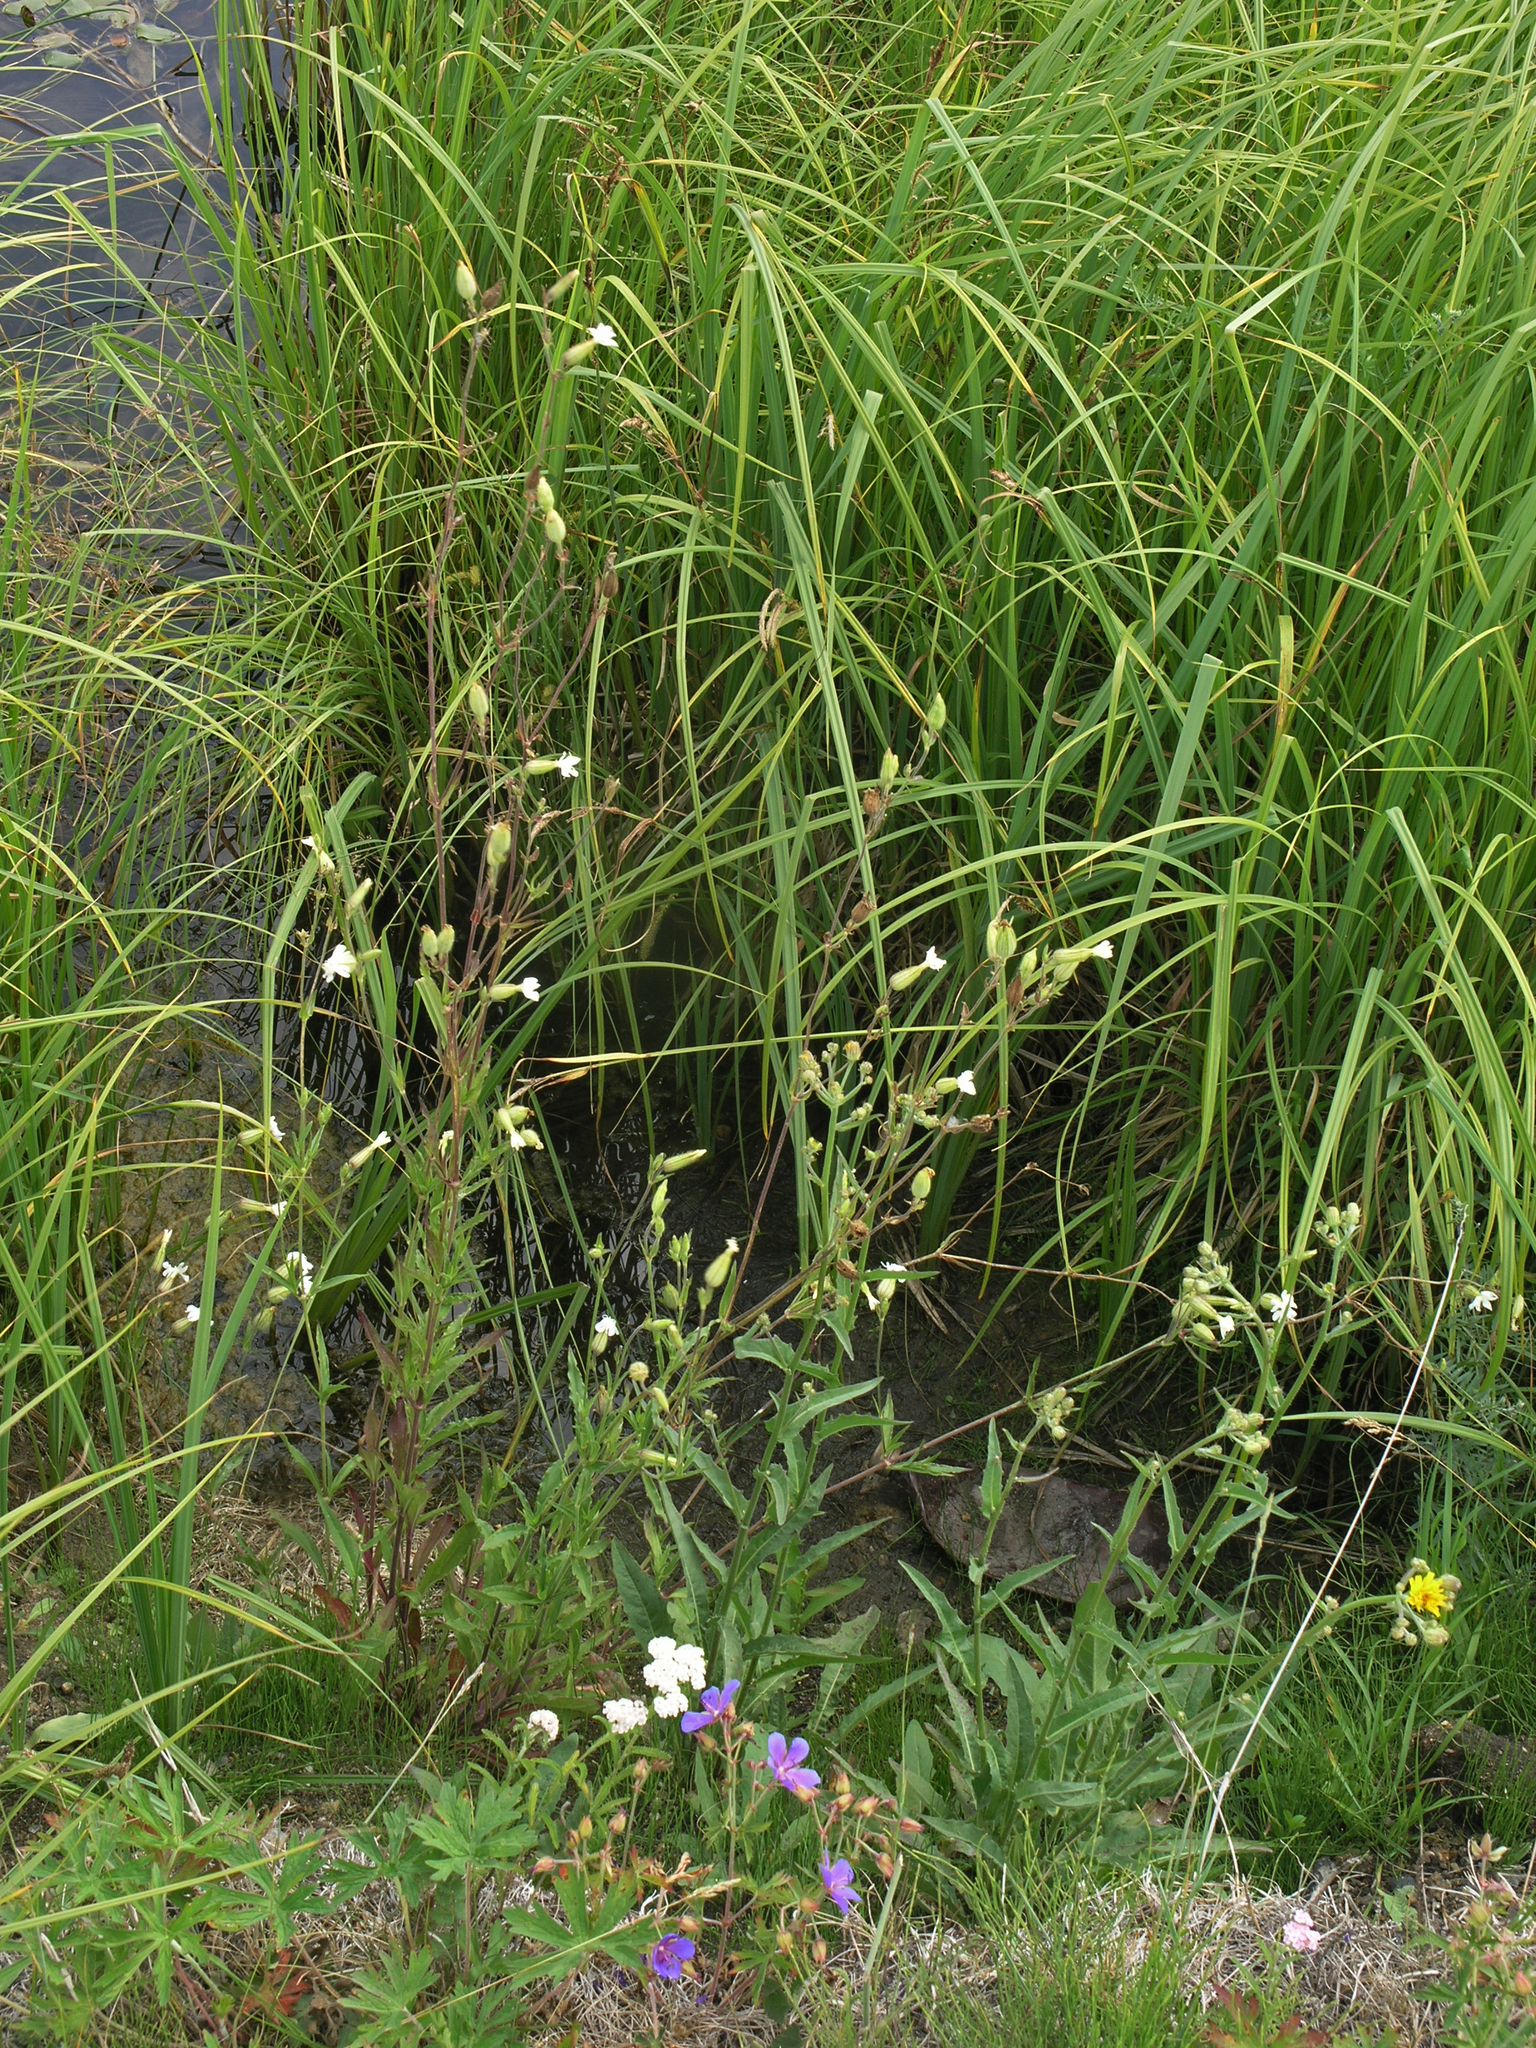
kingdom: Plantae
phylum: Tracheophyta
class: Magnoliopsida
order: Caryophyllales
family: Caryophyllaceae
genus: Silene
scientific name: Silene latifolia
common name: White campion
